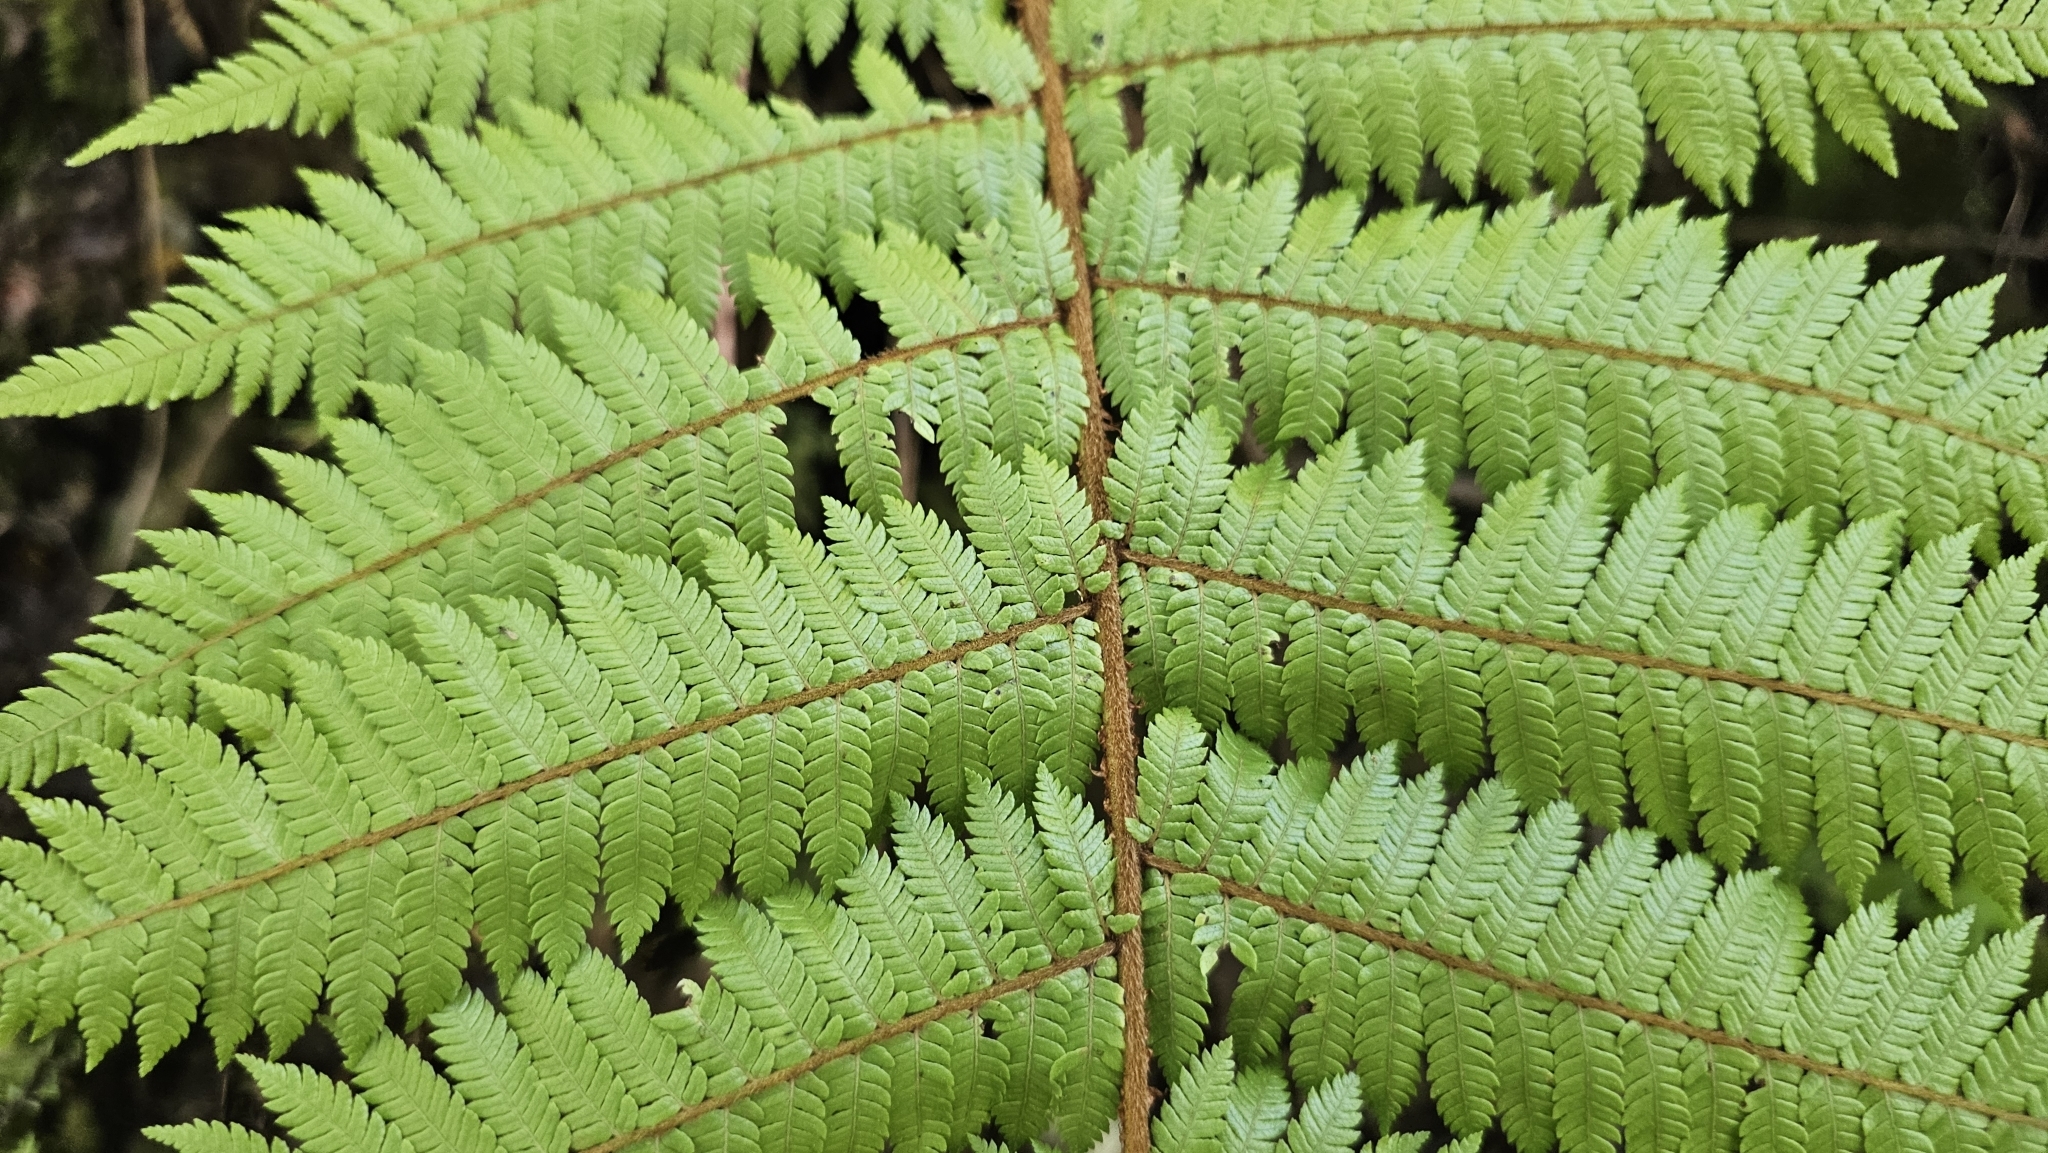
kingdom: Plantae
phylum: Tracheophyta
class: Polypodiopsida
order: Cyatheales
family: Cyatheaceae
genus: Alsophila
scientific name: Alsophila smithii
